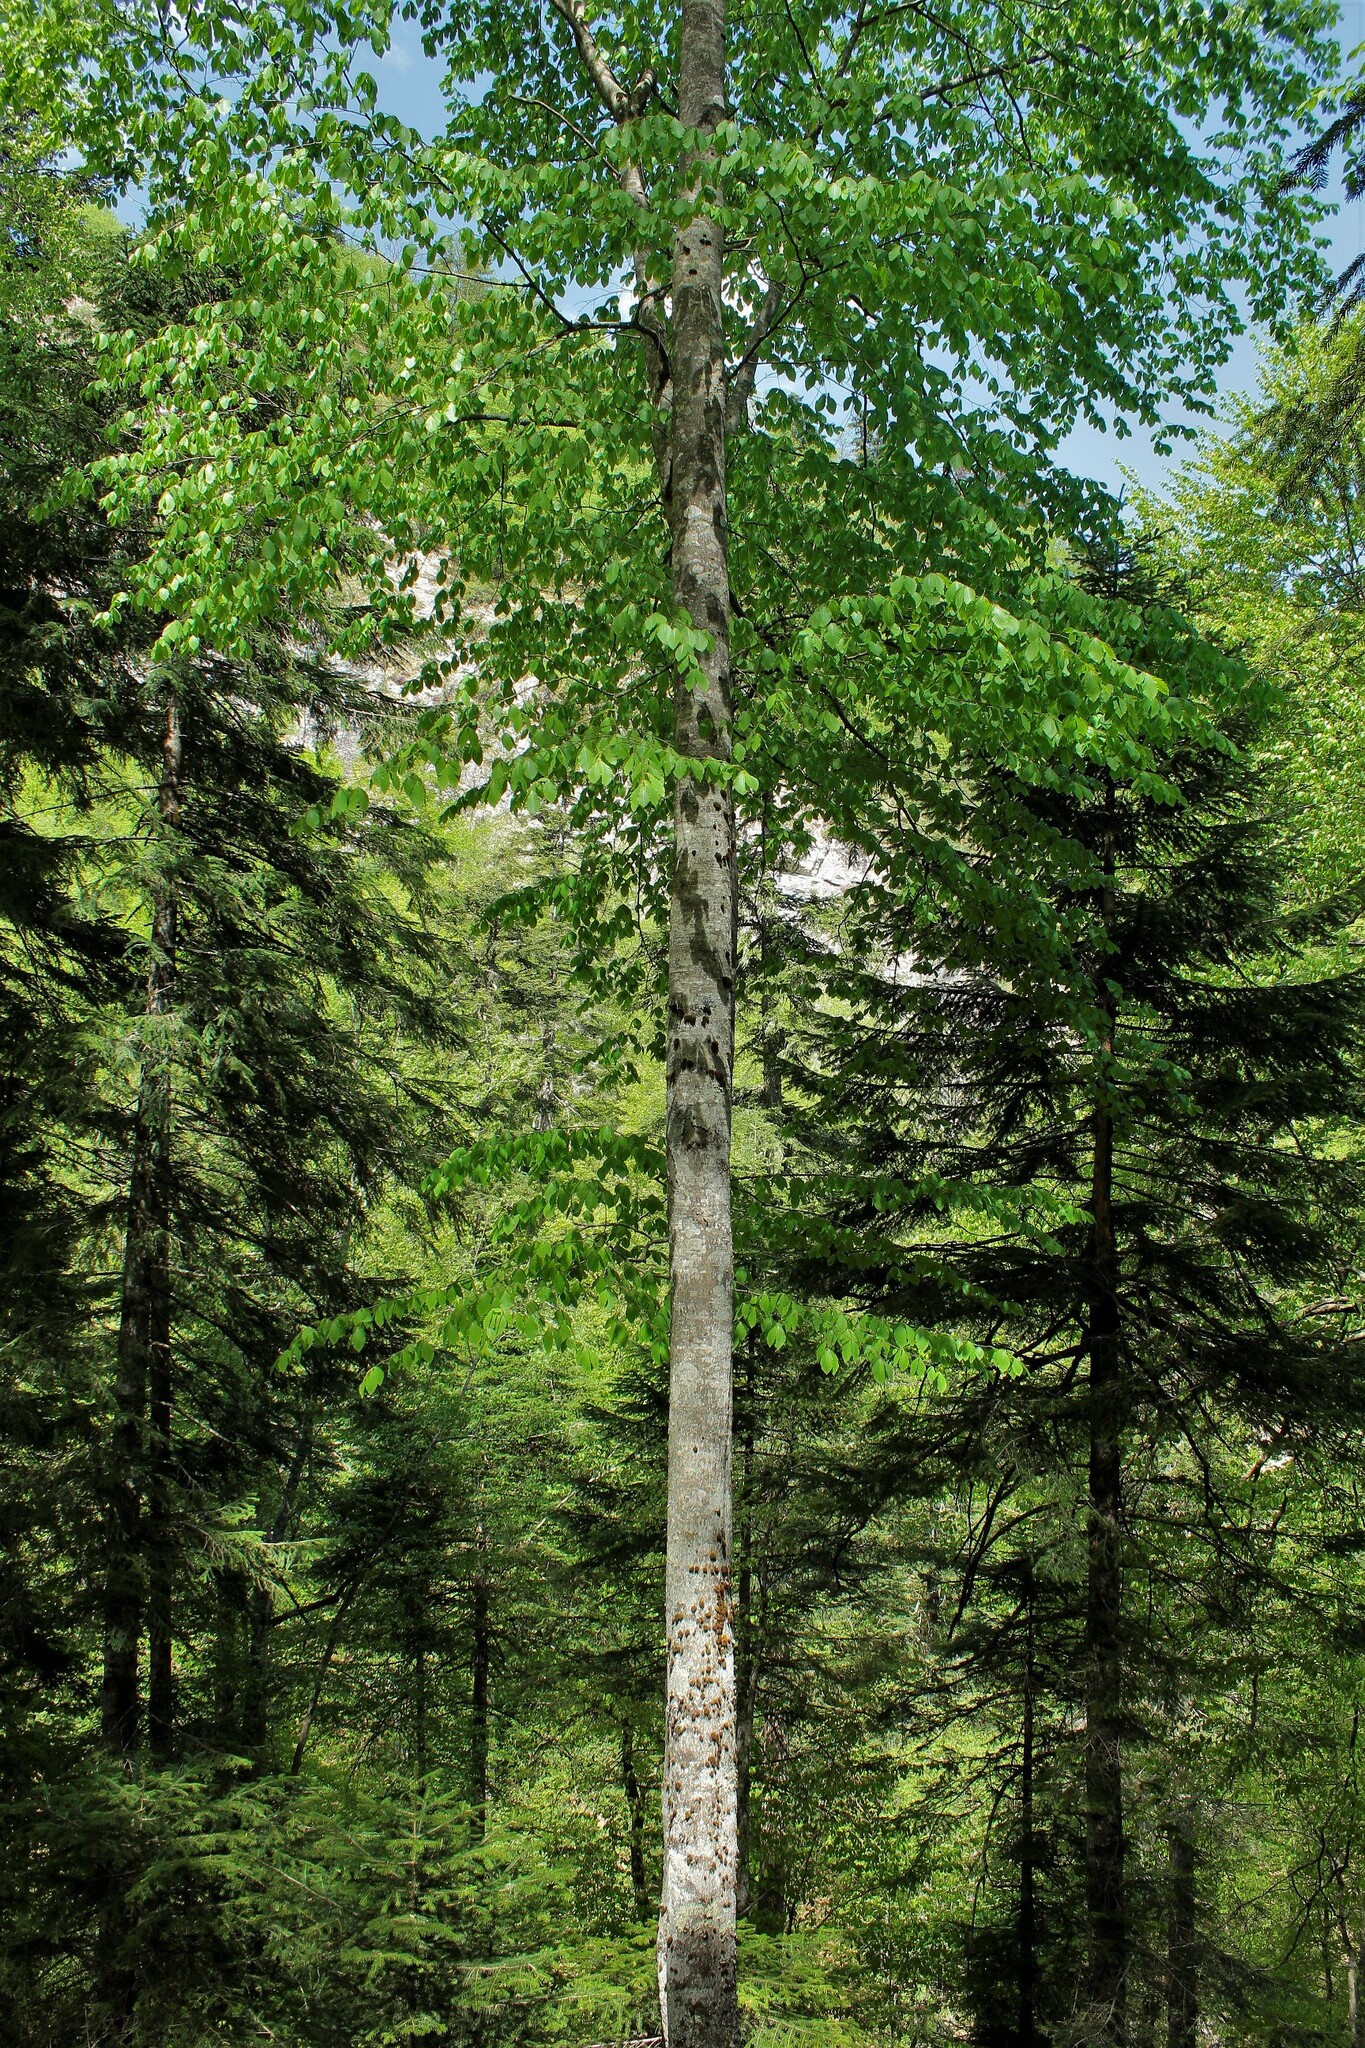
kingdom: Plantae
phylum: Tracheophyta
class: Magnoliopsida
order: Fagales
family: Fagaceae
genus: Fagus
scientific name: Fagus orientalis
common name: Oriental beech
